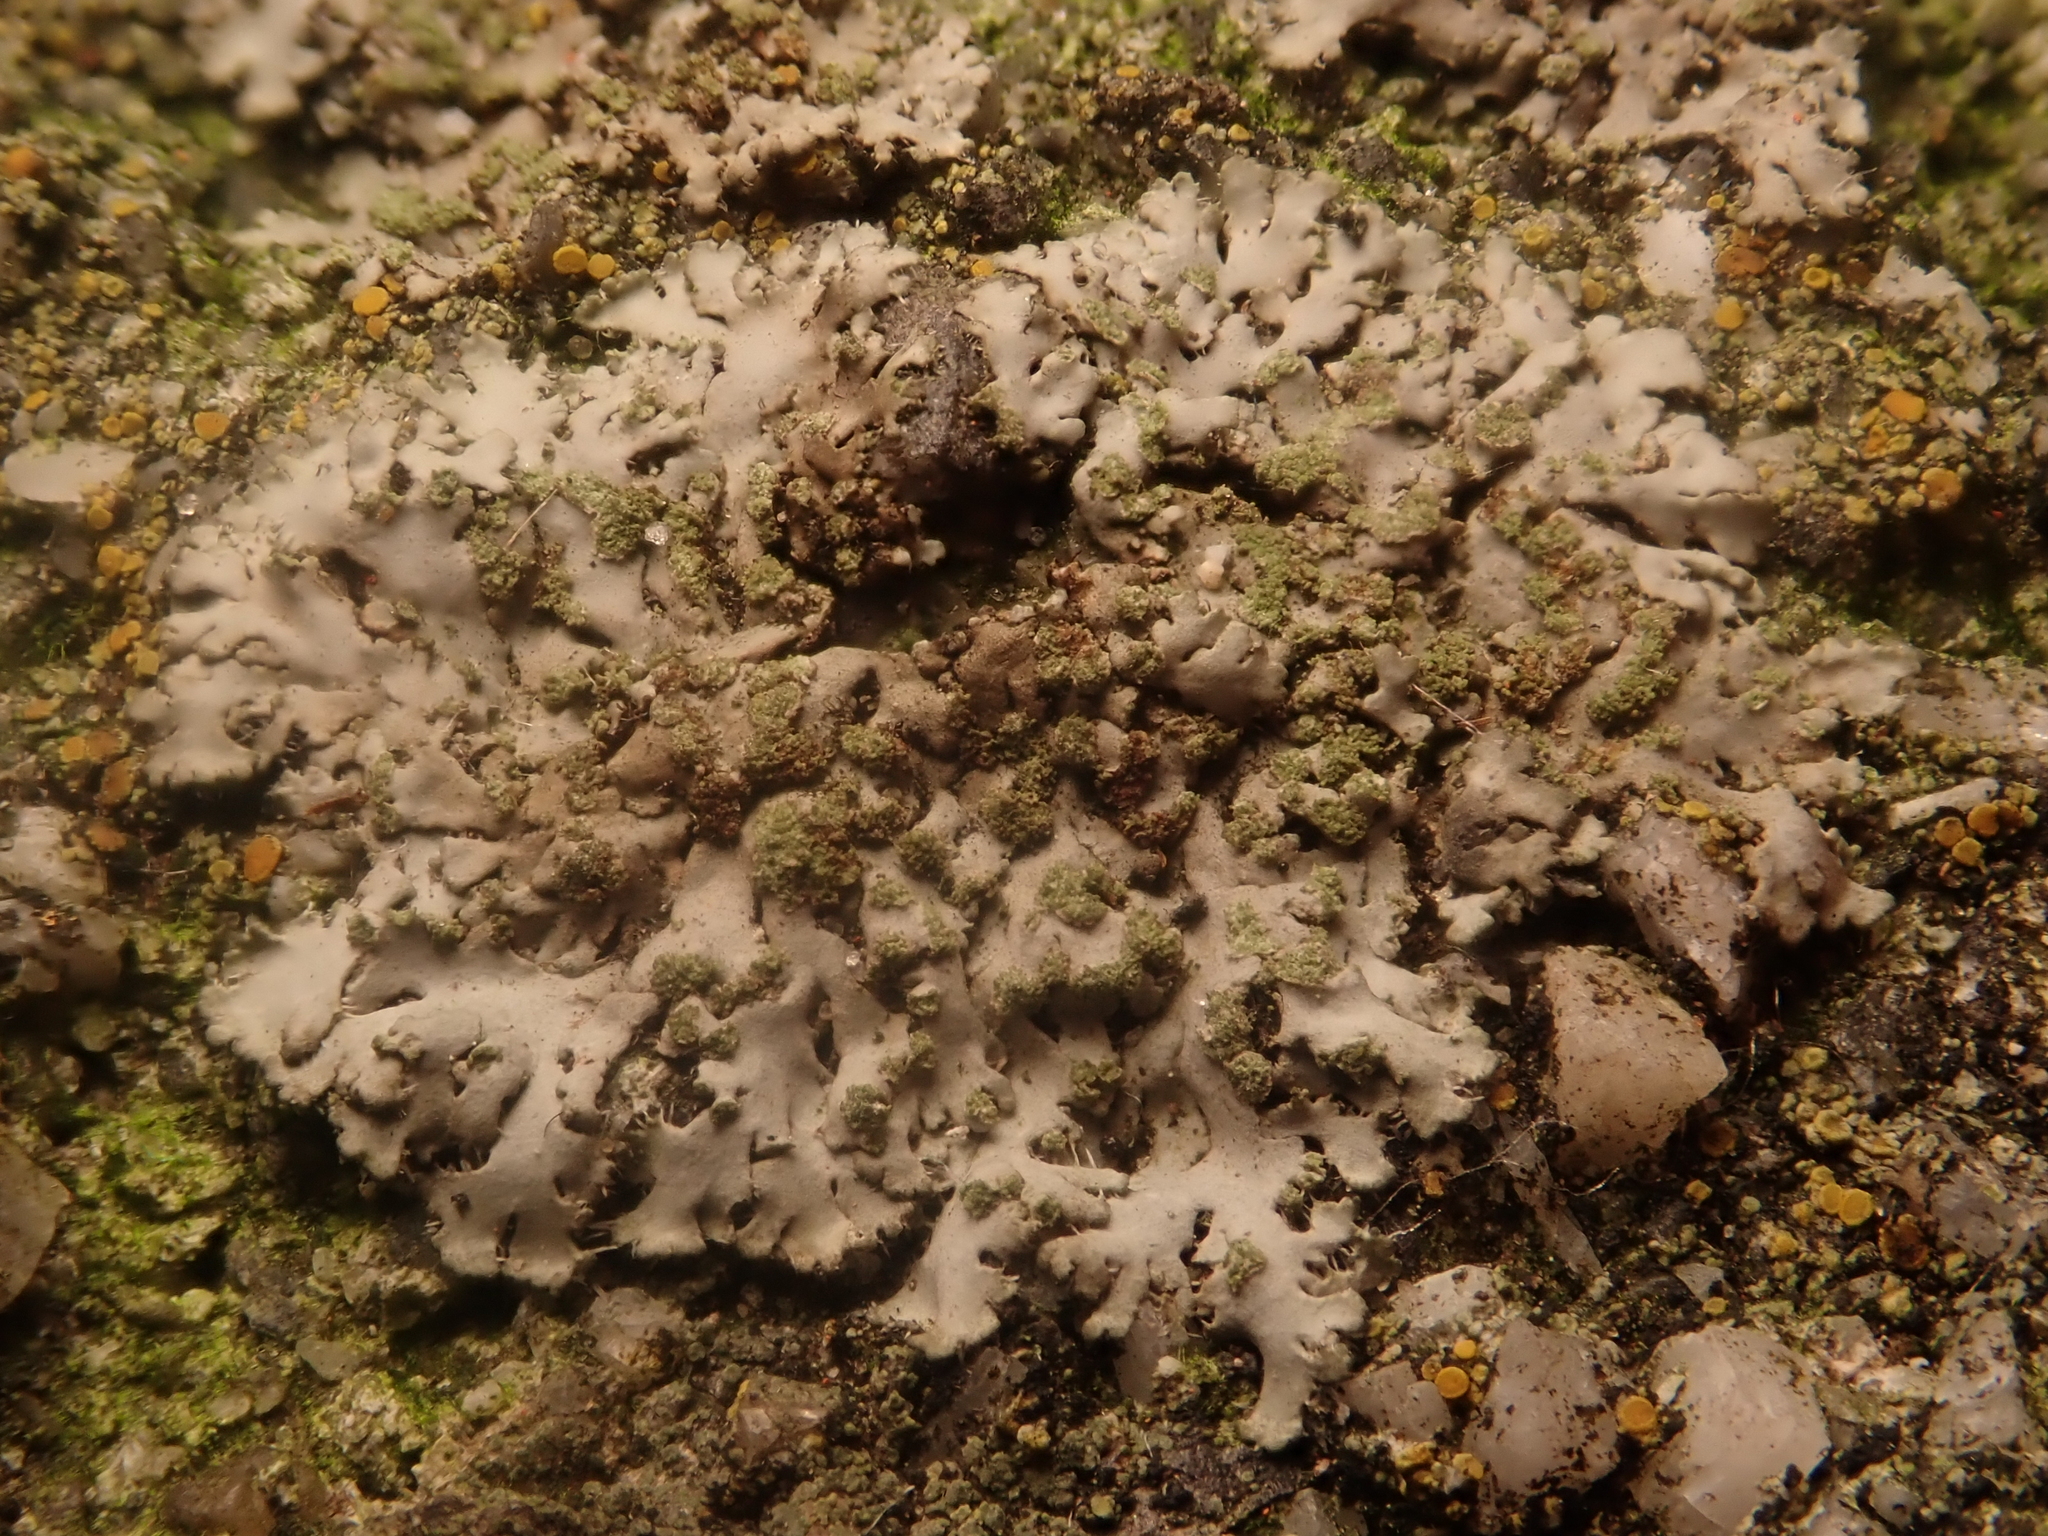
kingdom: Fungi
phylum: Ascomycota
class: Lecanoromycetes
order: Caliciales
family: Physciaceae
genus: Phaeophyscia
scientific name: Phaeophyscia orbicularis
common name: Mealy shadow lichen
